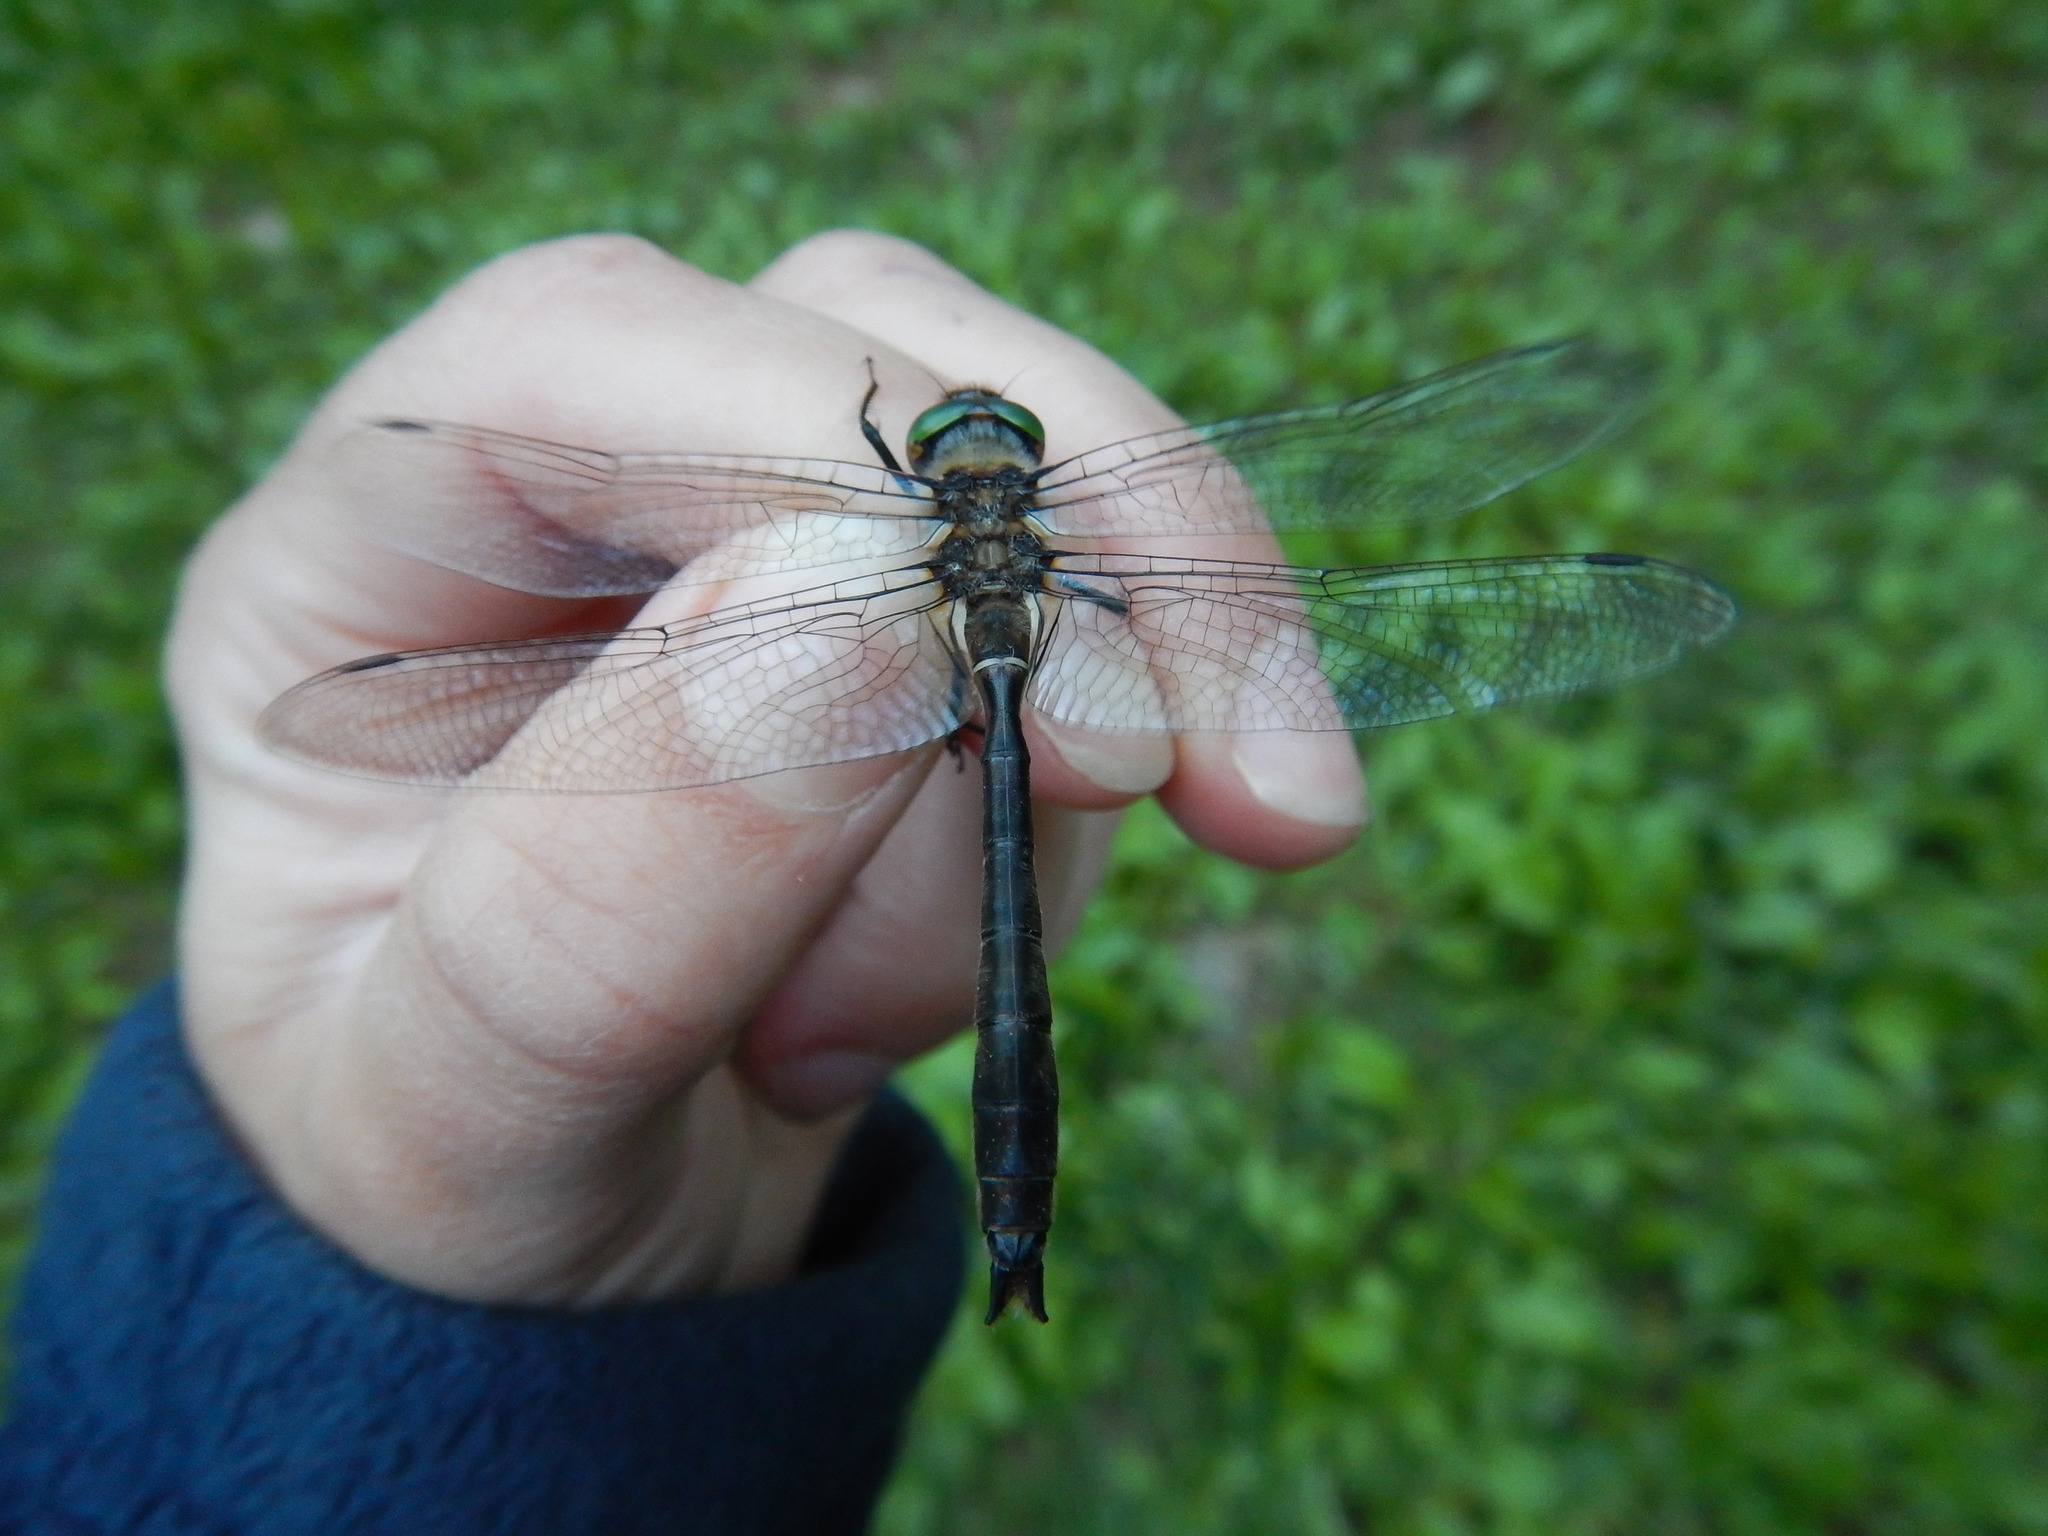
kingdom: Animalia
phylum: Arthropoda
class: Insecta
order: Odonata
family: Corduliidae
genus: Cordulia
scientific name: Cordulia shurtleffii
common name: American emerald
